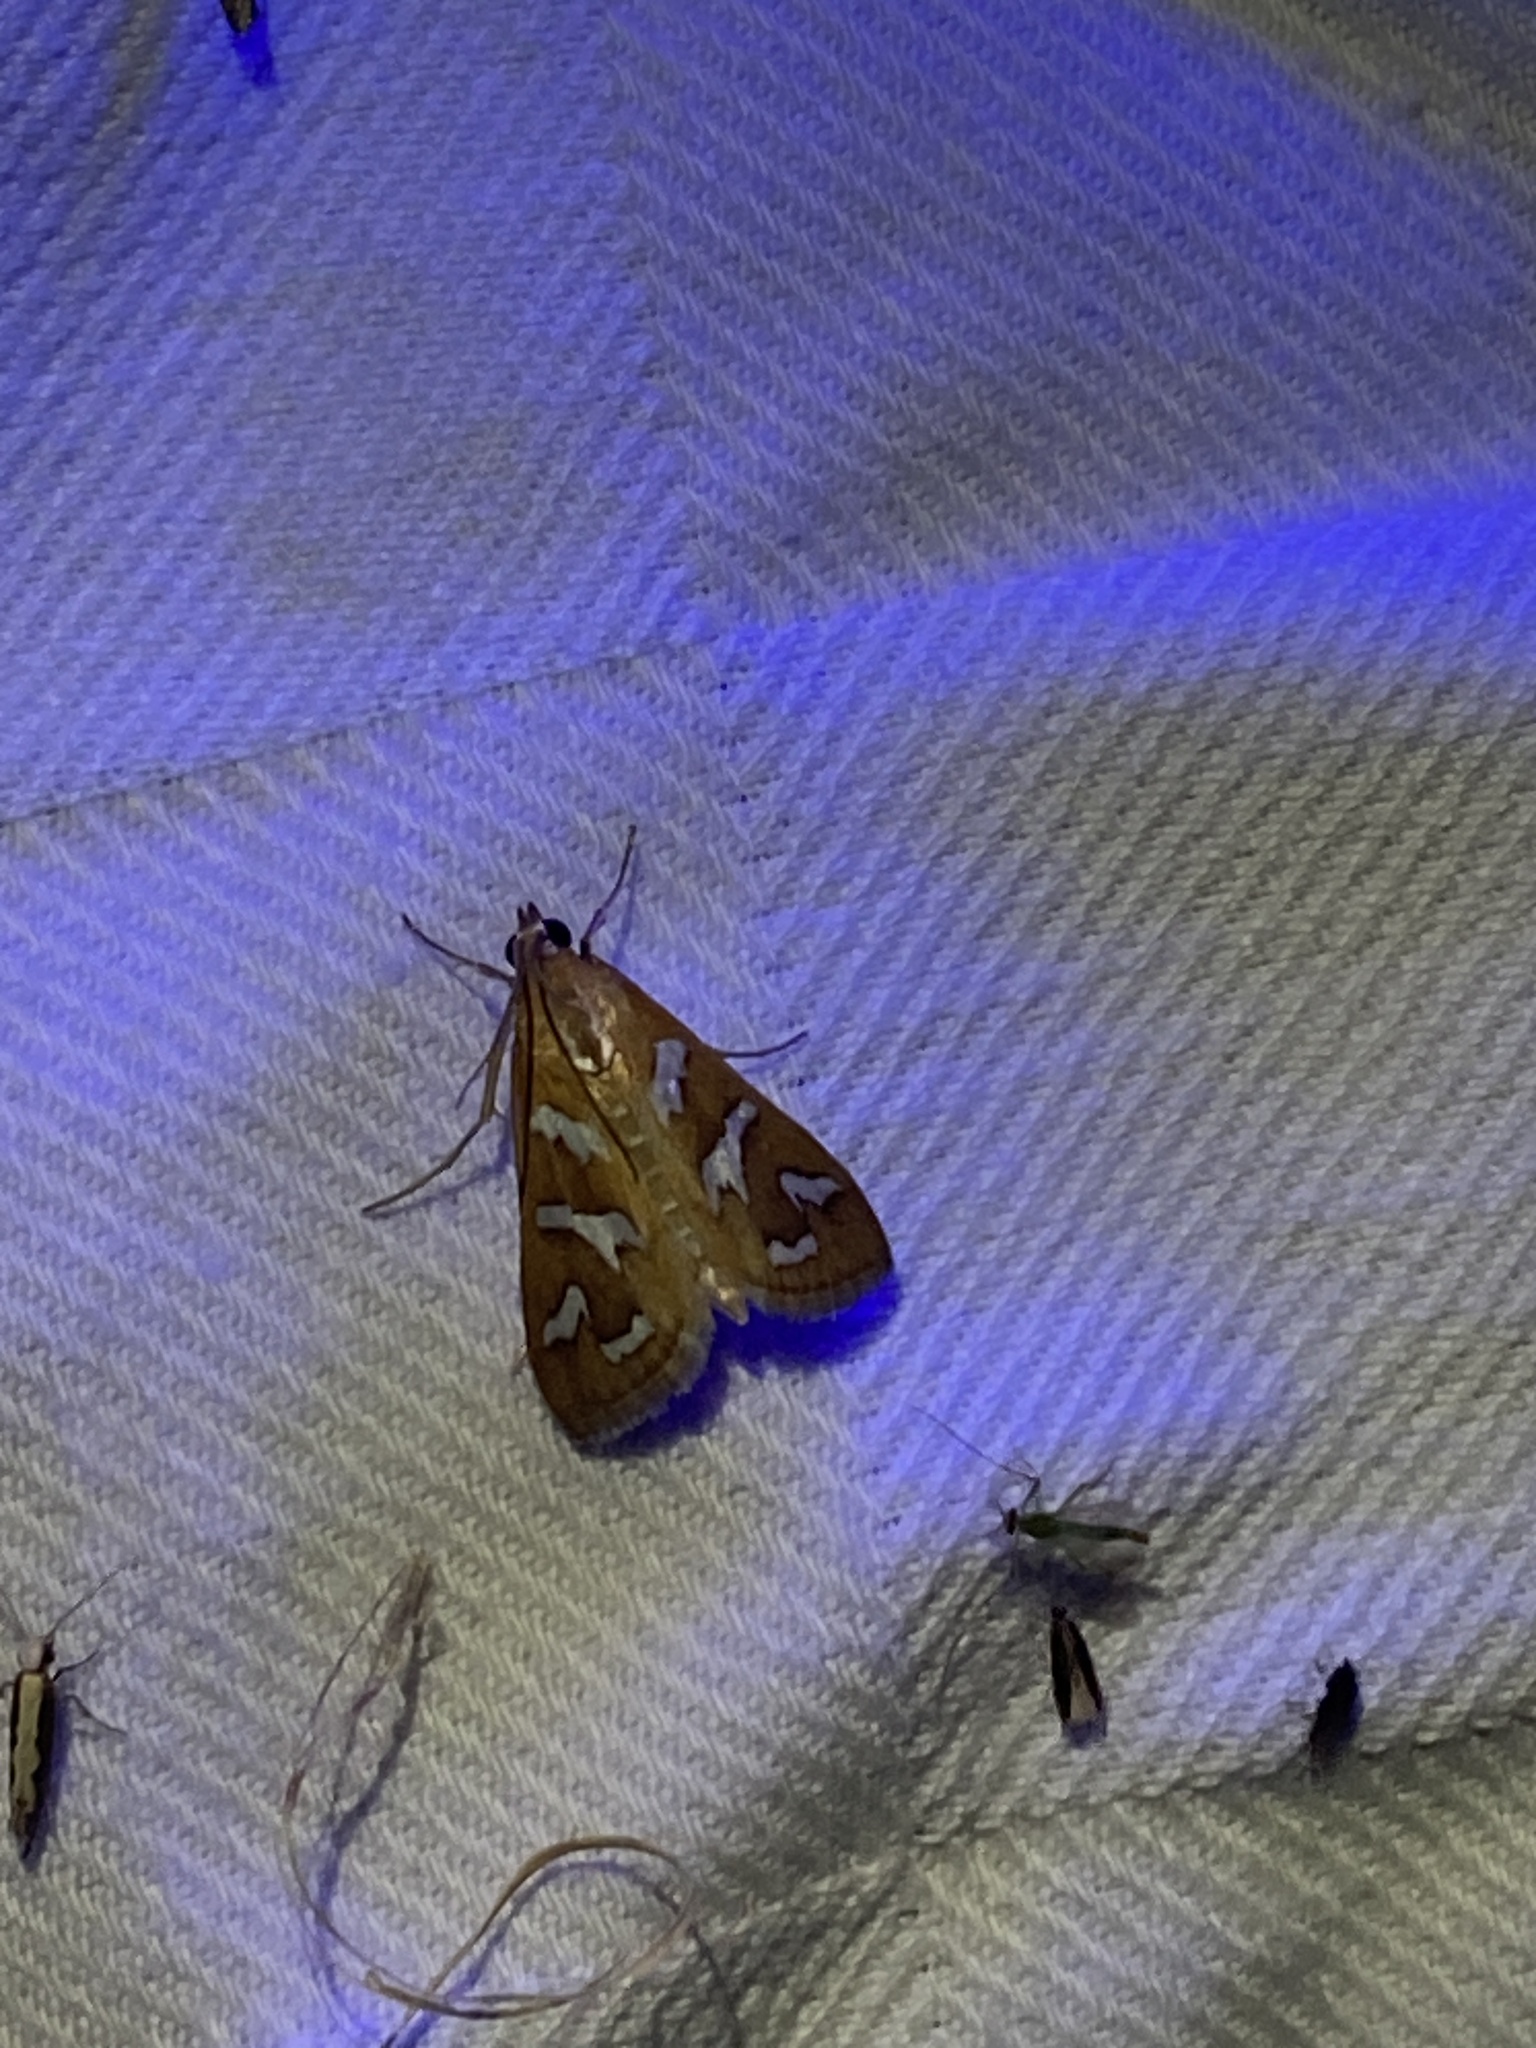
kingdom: Animalia
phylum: Arthropoda
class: Insecta
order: Lepidoptera
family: Crambidae
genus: Diastictis
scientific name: Diastictis fracturalis
